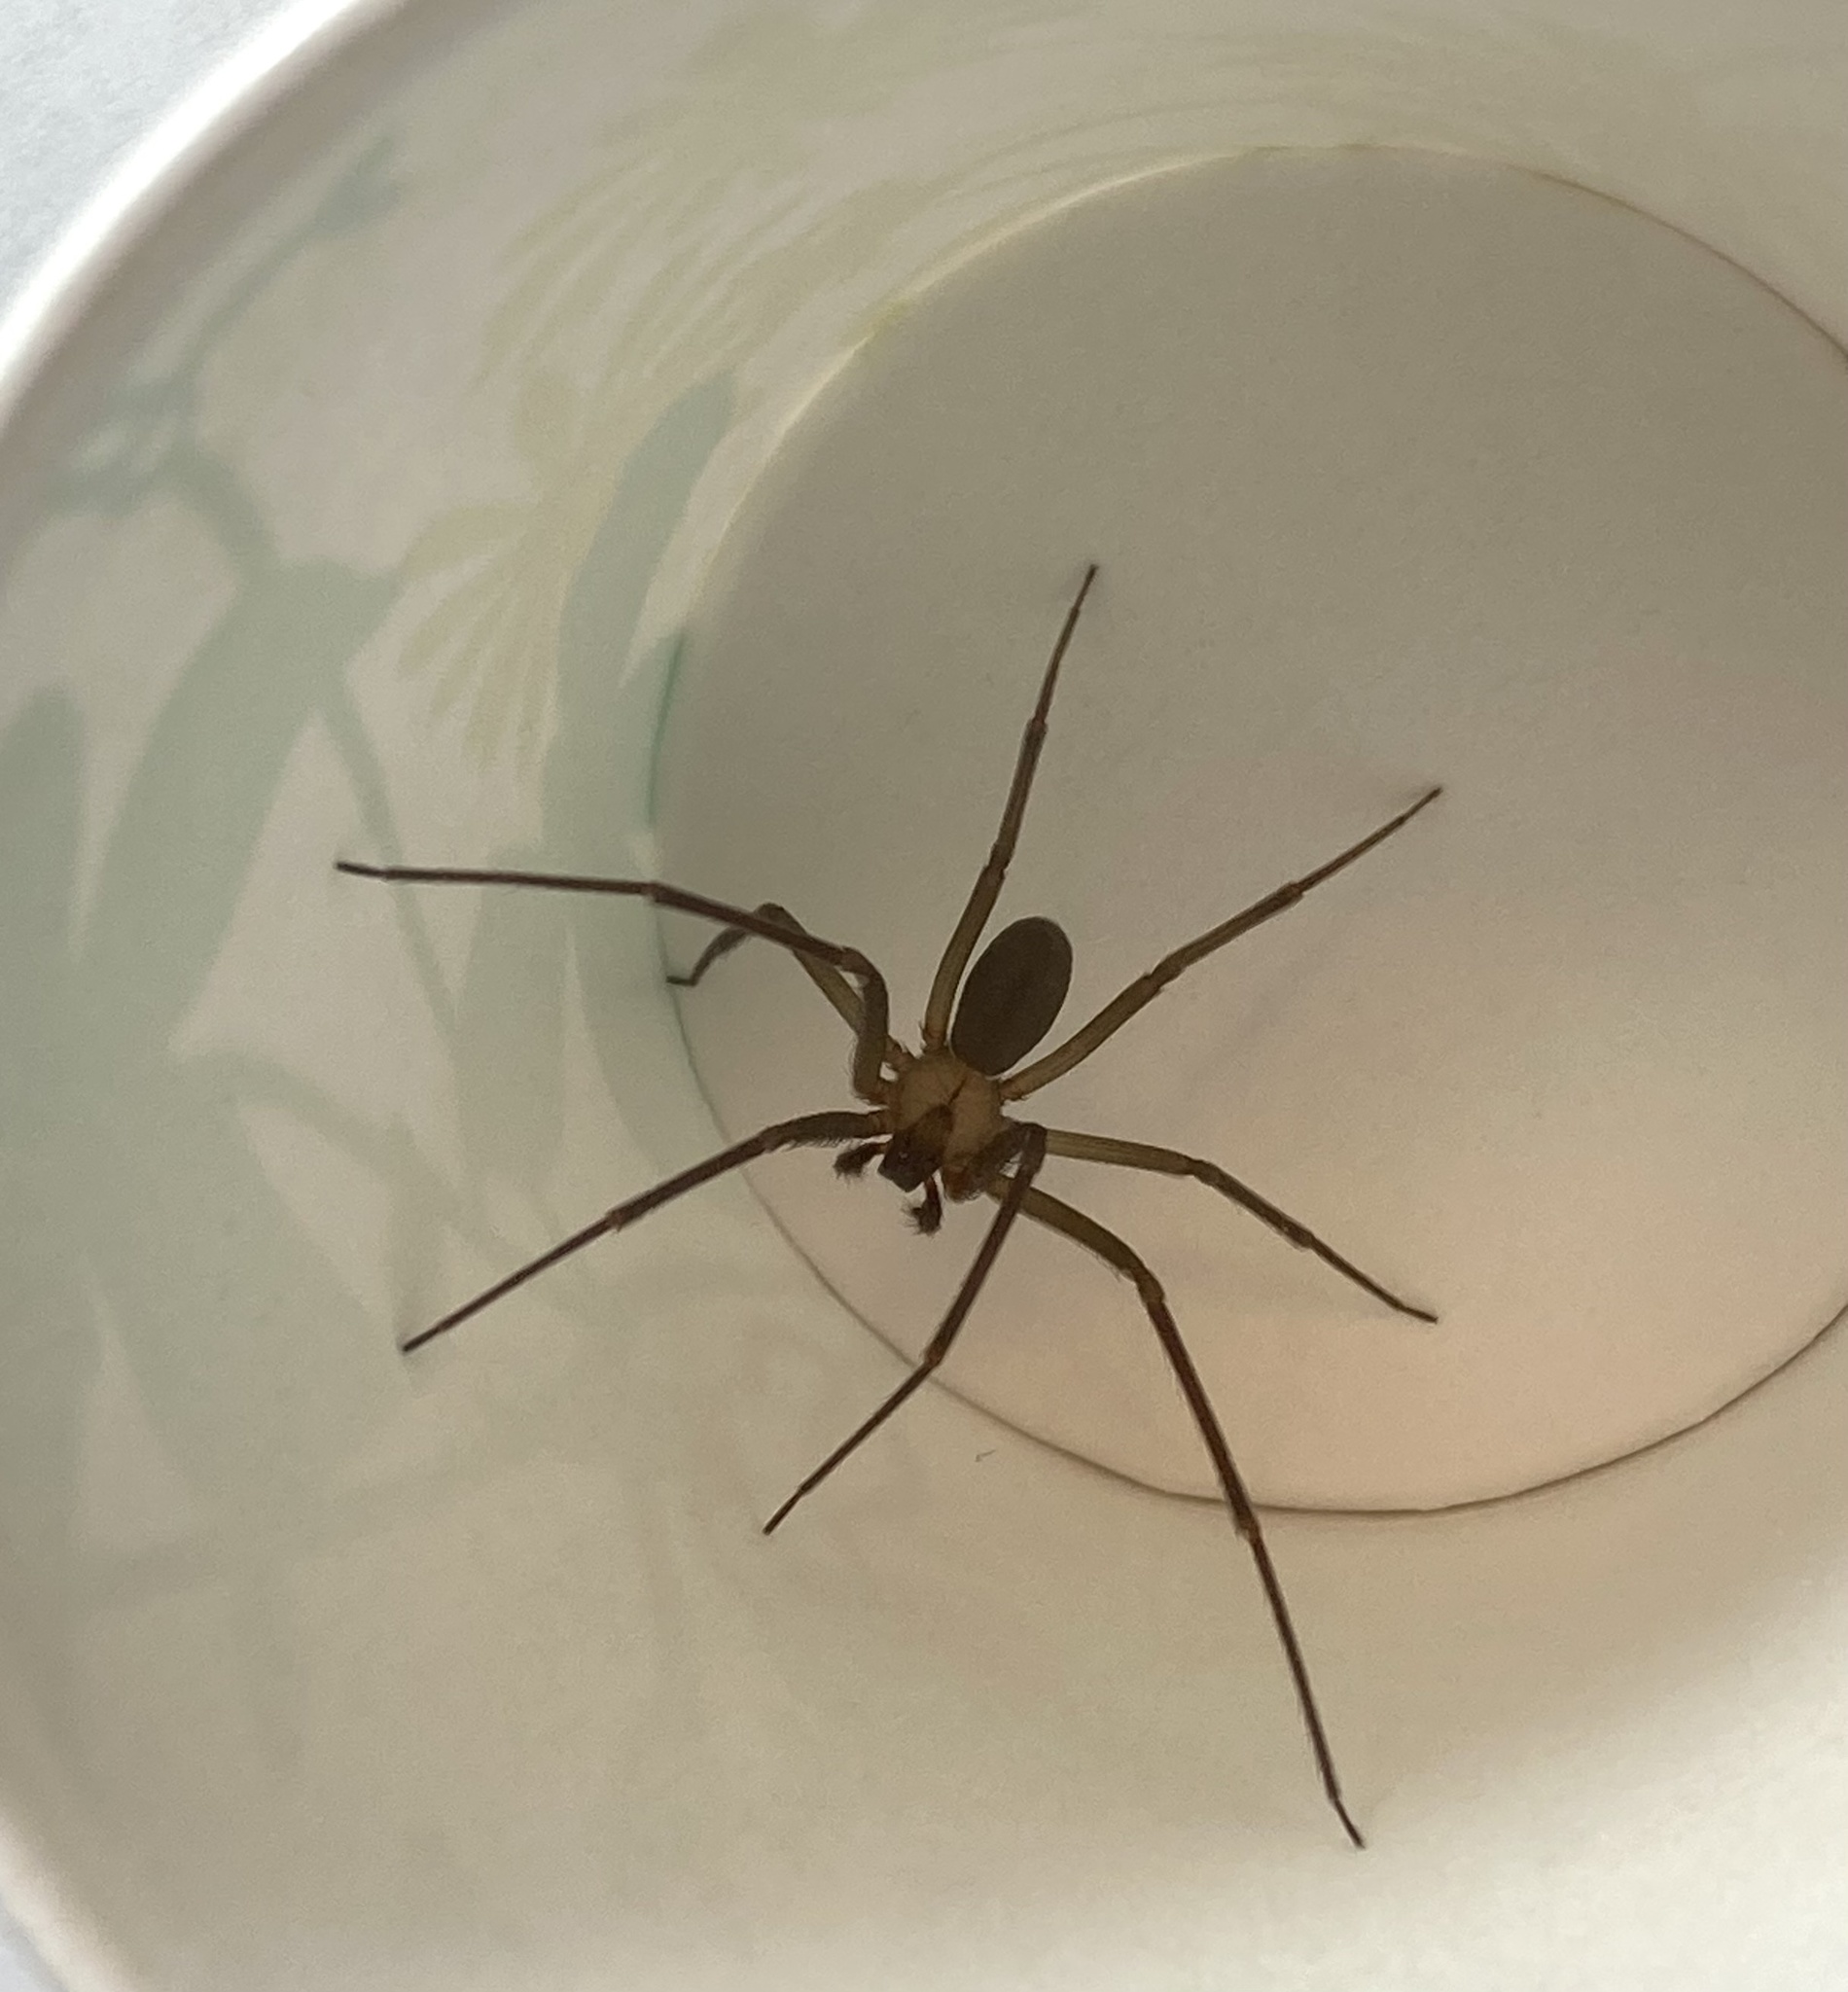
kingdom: Animalia
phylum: Arthropoda
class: Arachnida
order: Araneae
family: Sicariidae
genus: Loxosceles
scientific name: Loxosceles reclusa
